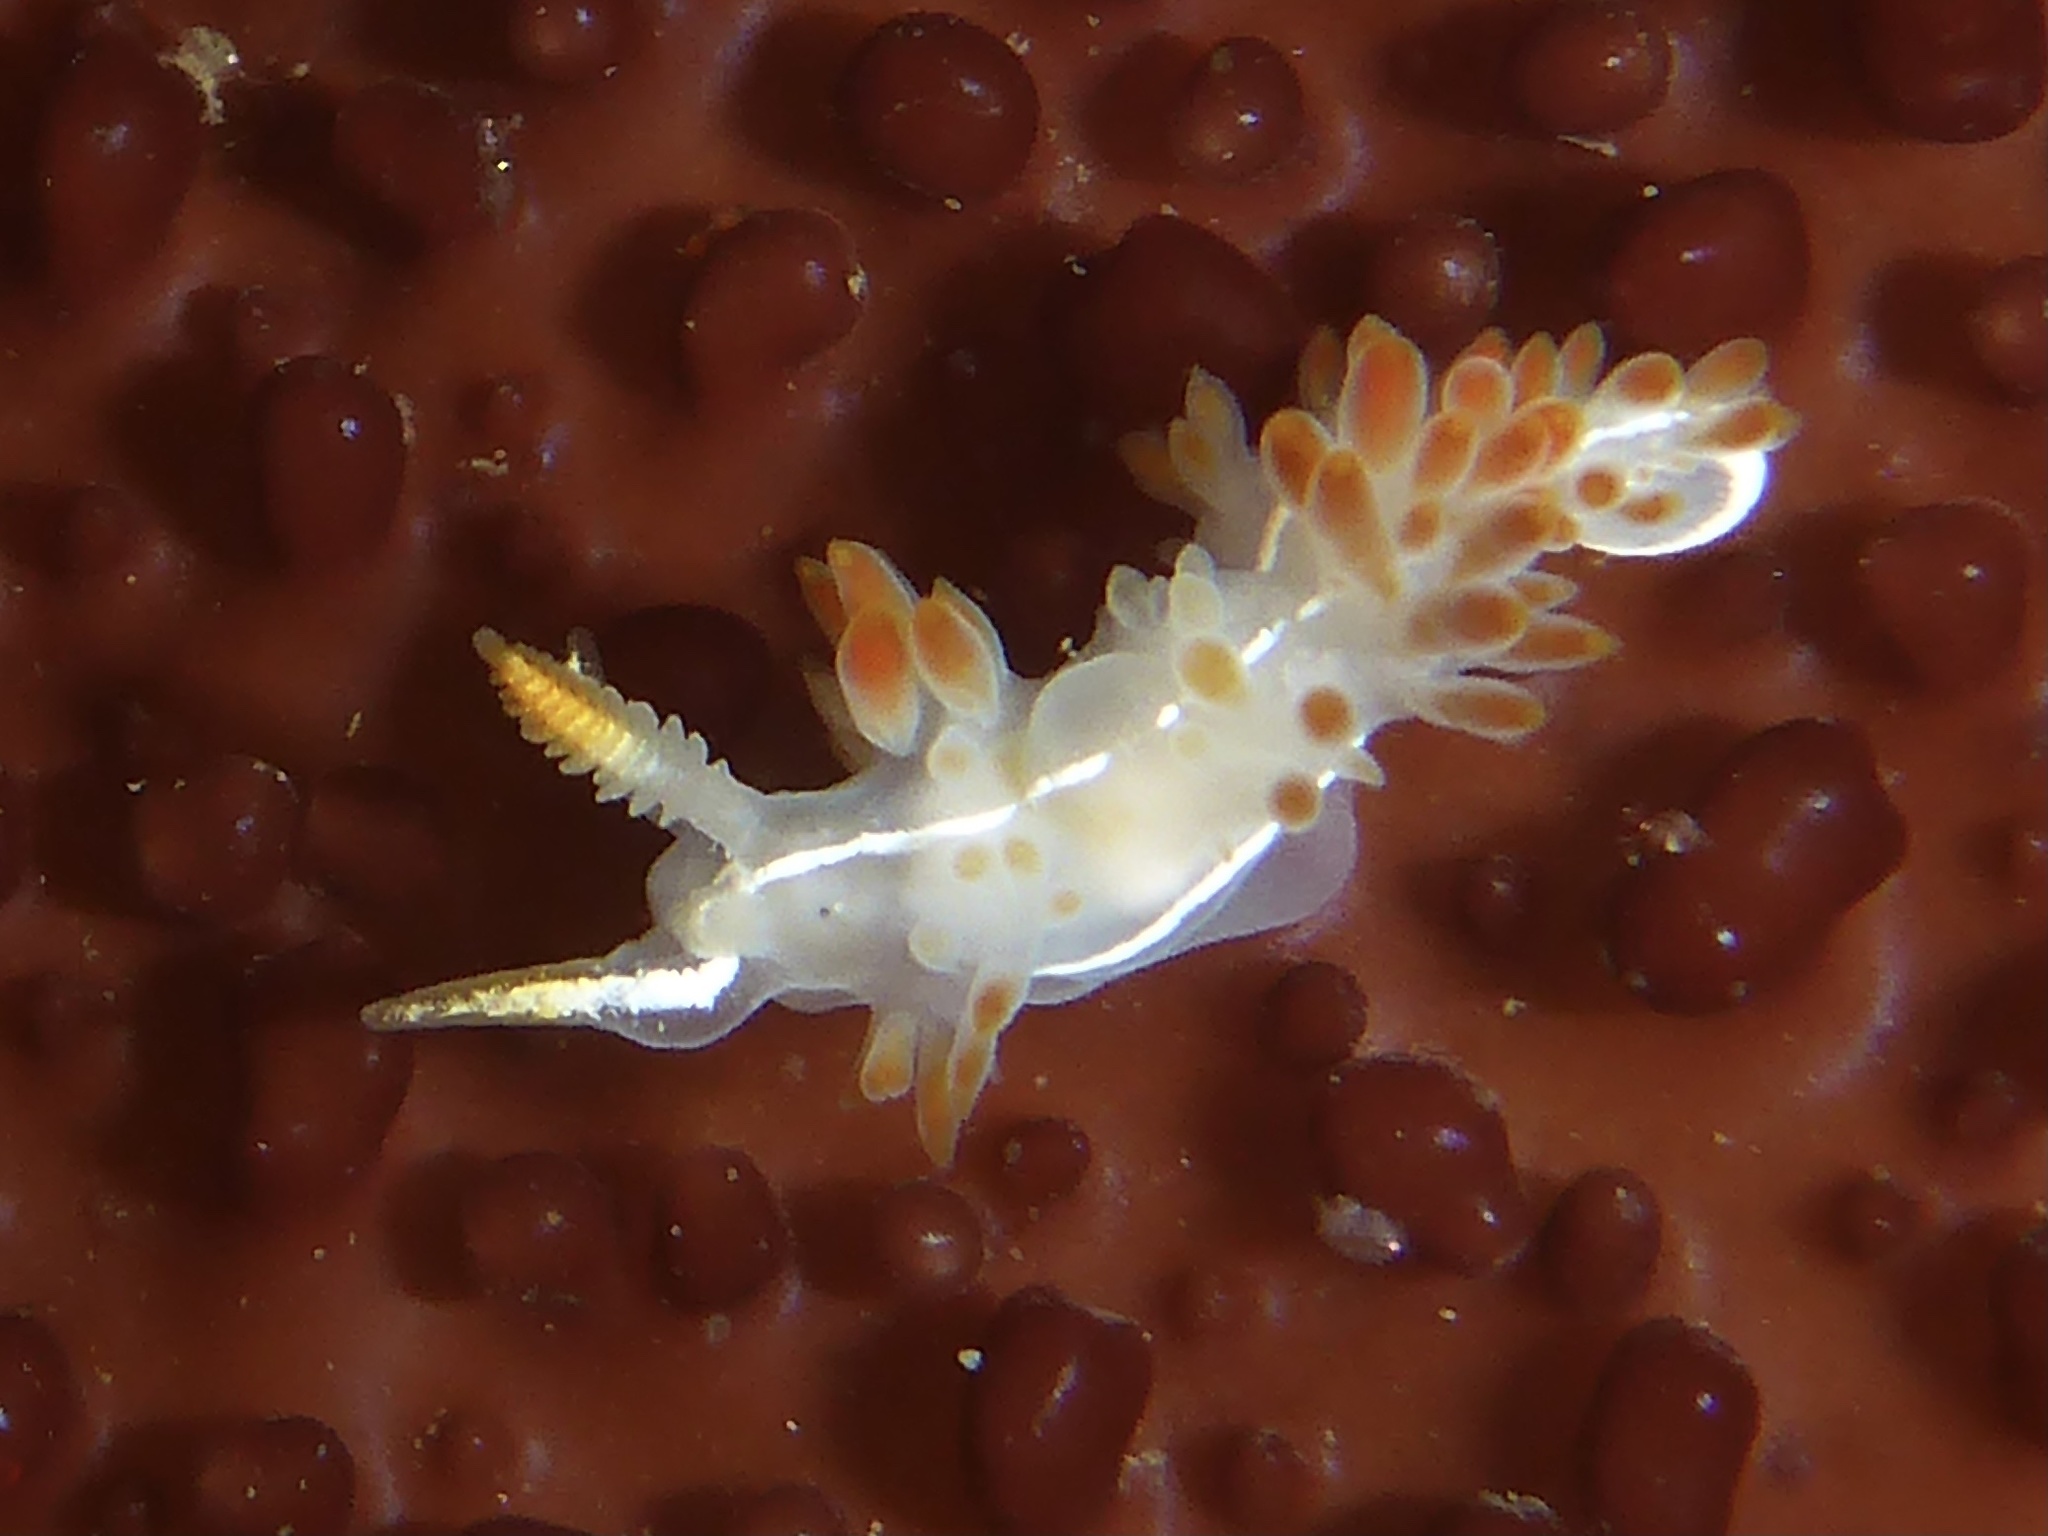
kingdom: Animalia
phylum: Mollusca
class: Gastropoda
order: Nudibranchia
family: Coryphellidae
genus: Coryphella
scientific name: Coryphella trilineata
